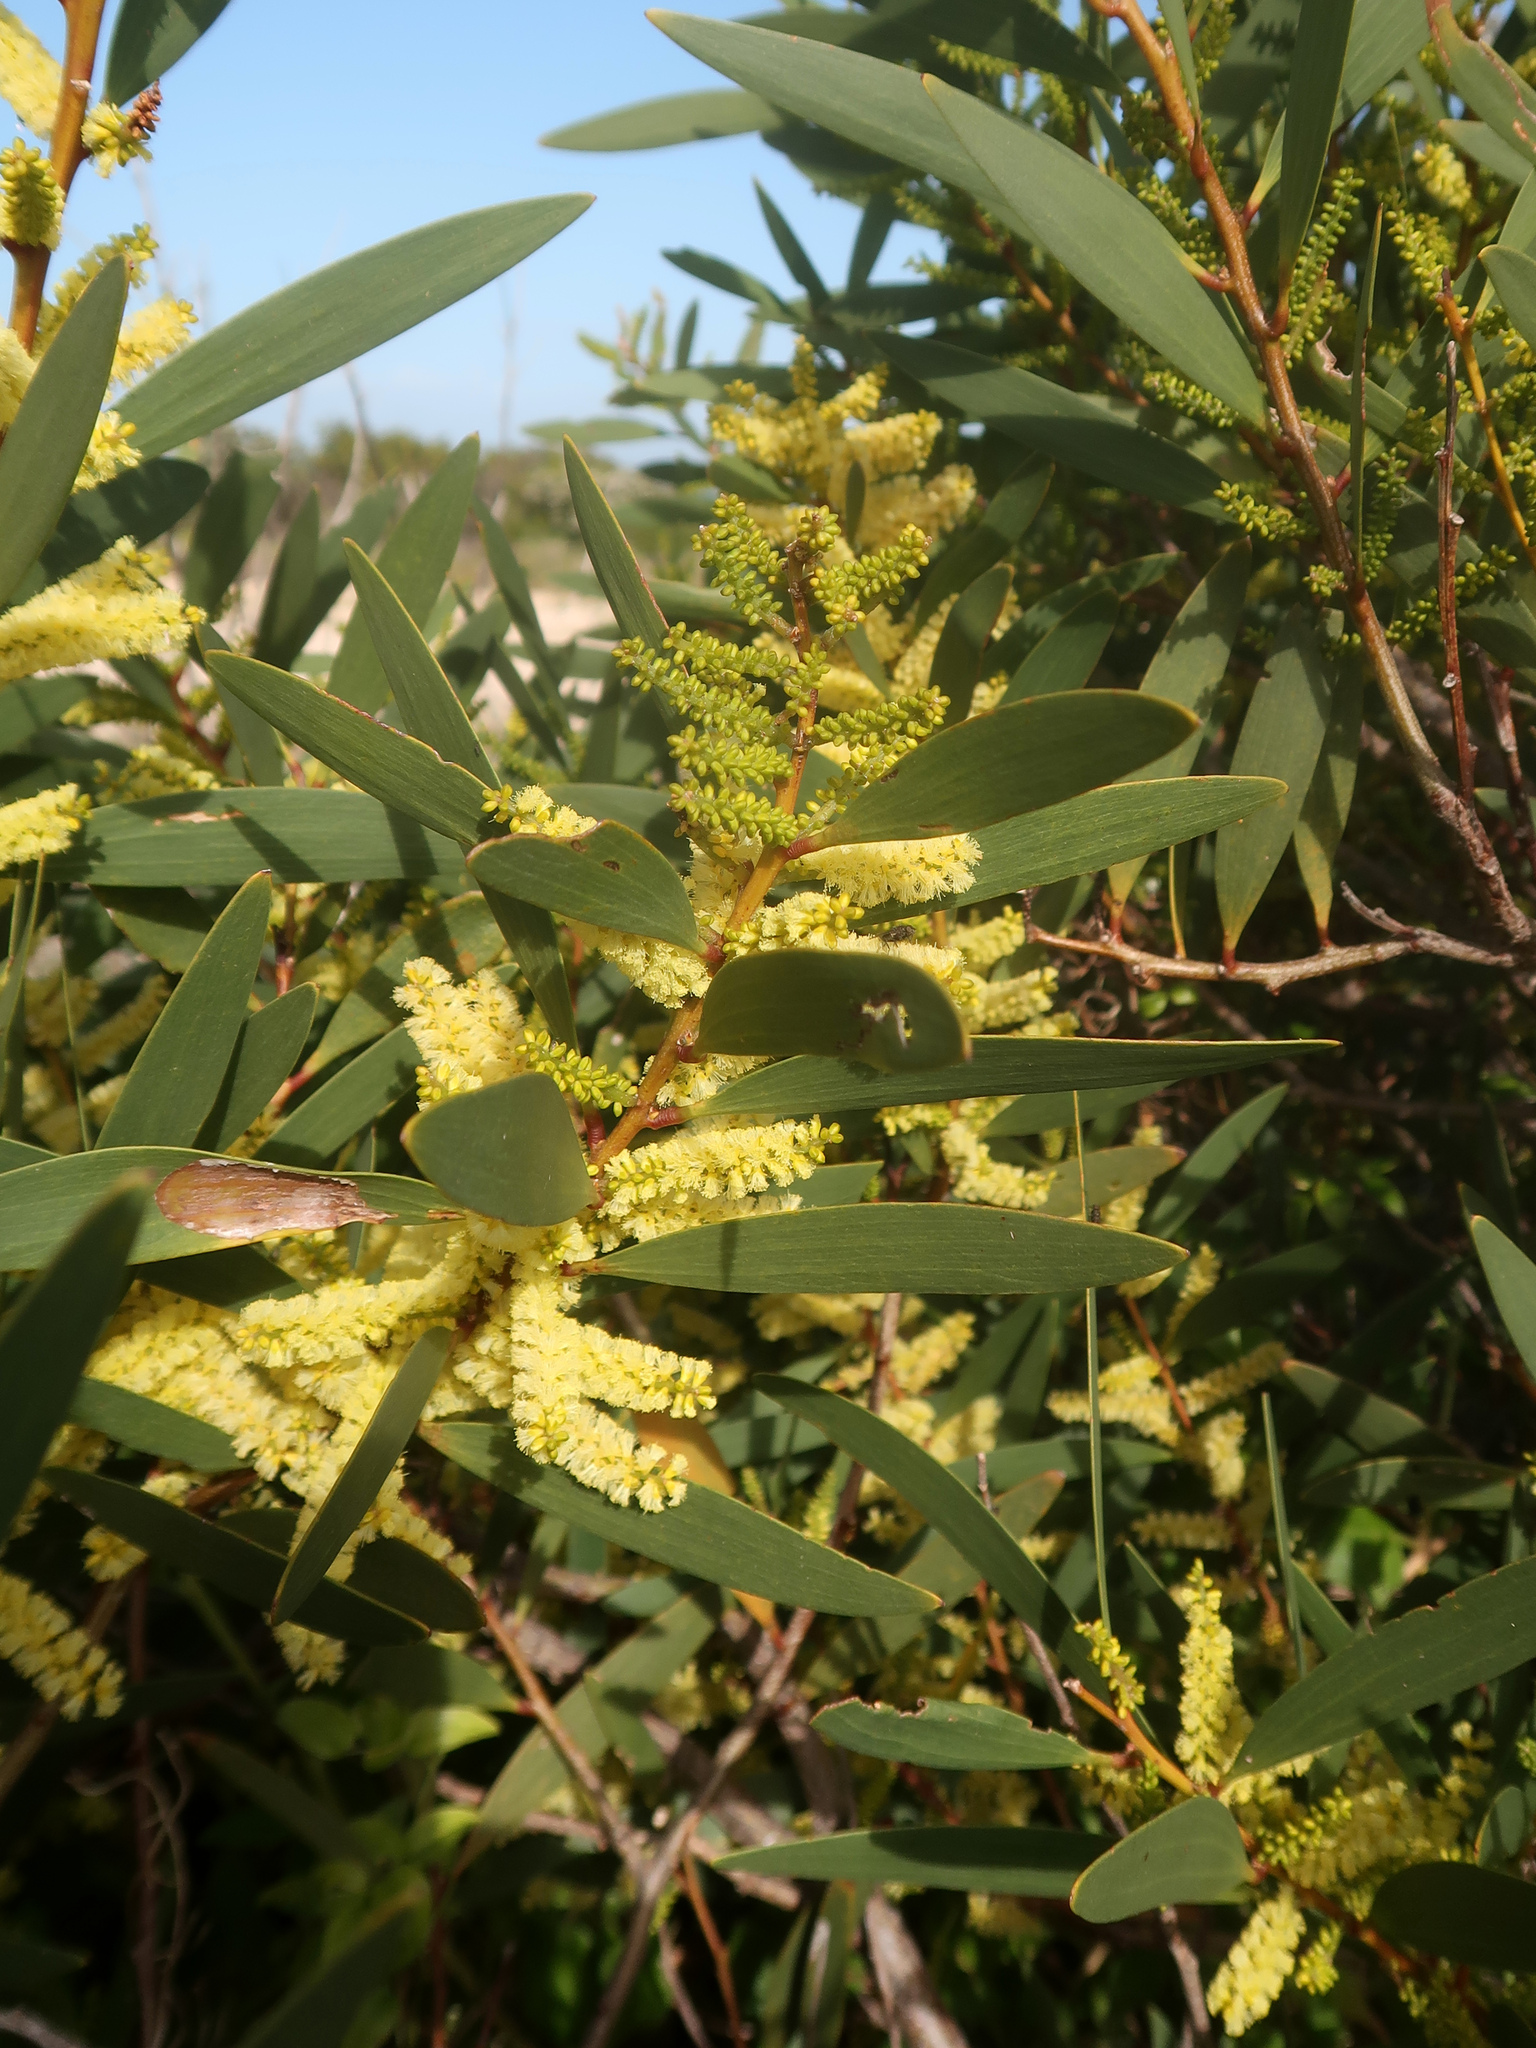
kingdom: Plantae
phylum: Tracheophyta
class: Magnoliopsida
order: Fabales
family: Fabaceae
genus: Acacia
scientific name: Acacia longifolia
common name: Sydney golden wattle
